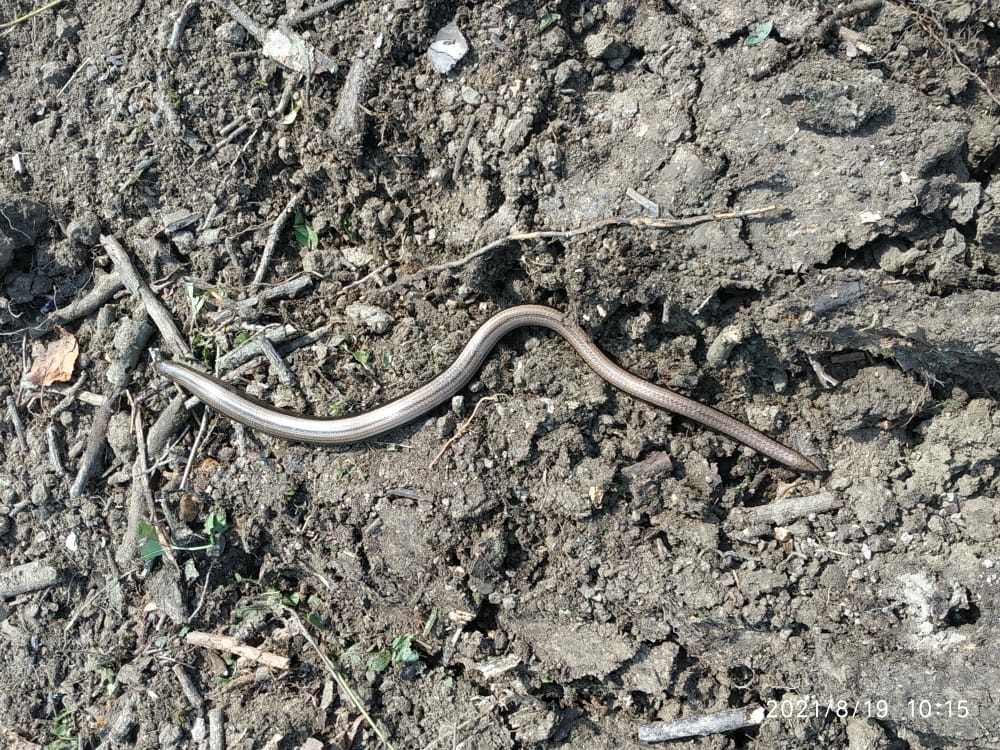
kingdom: Animalia
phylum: Chordata
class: Squamata
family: Anguidae
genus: Anguis
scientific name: Anguis colchica
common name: Slow worm
